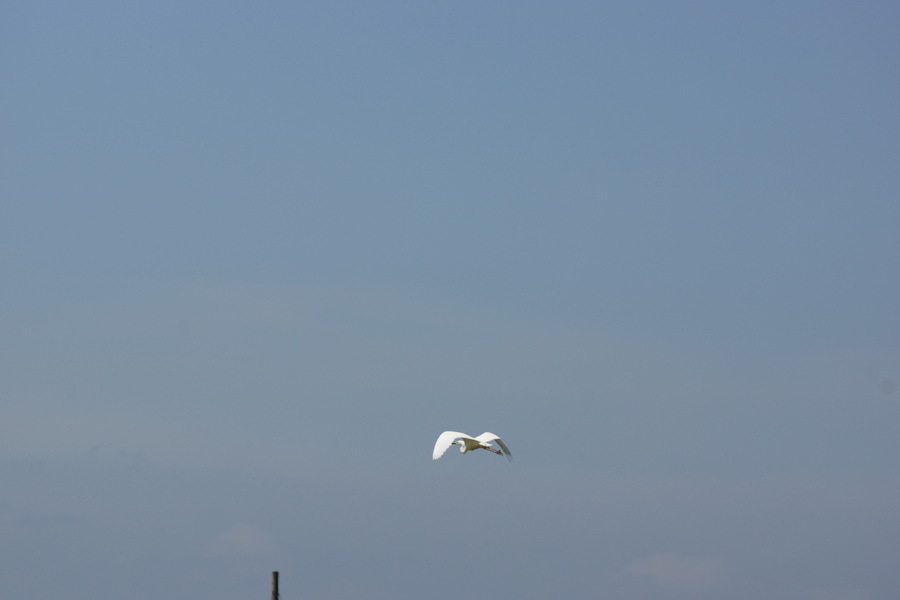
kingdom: Animalia
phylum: Chordata
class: Aves
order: Pelecaniformes
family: Ardeidae
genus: Ardea
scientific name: Ardea alba
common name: Great egret
